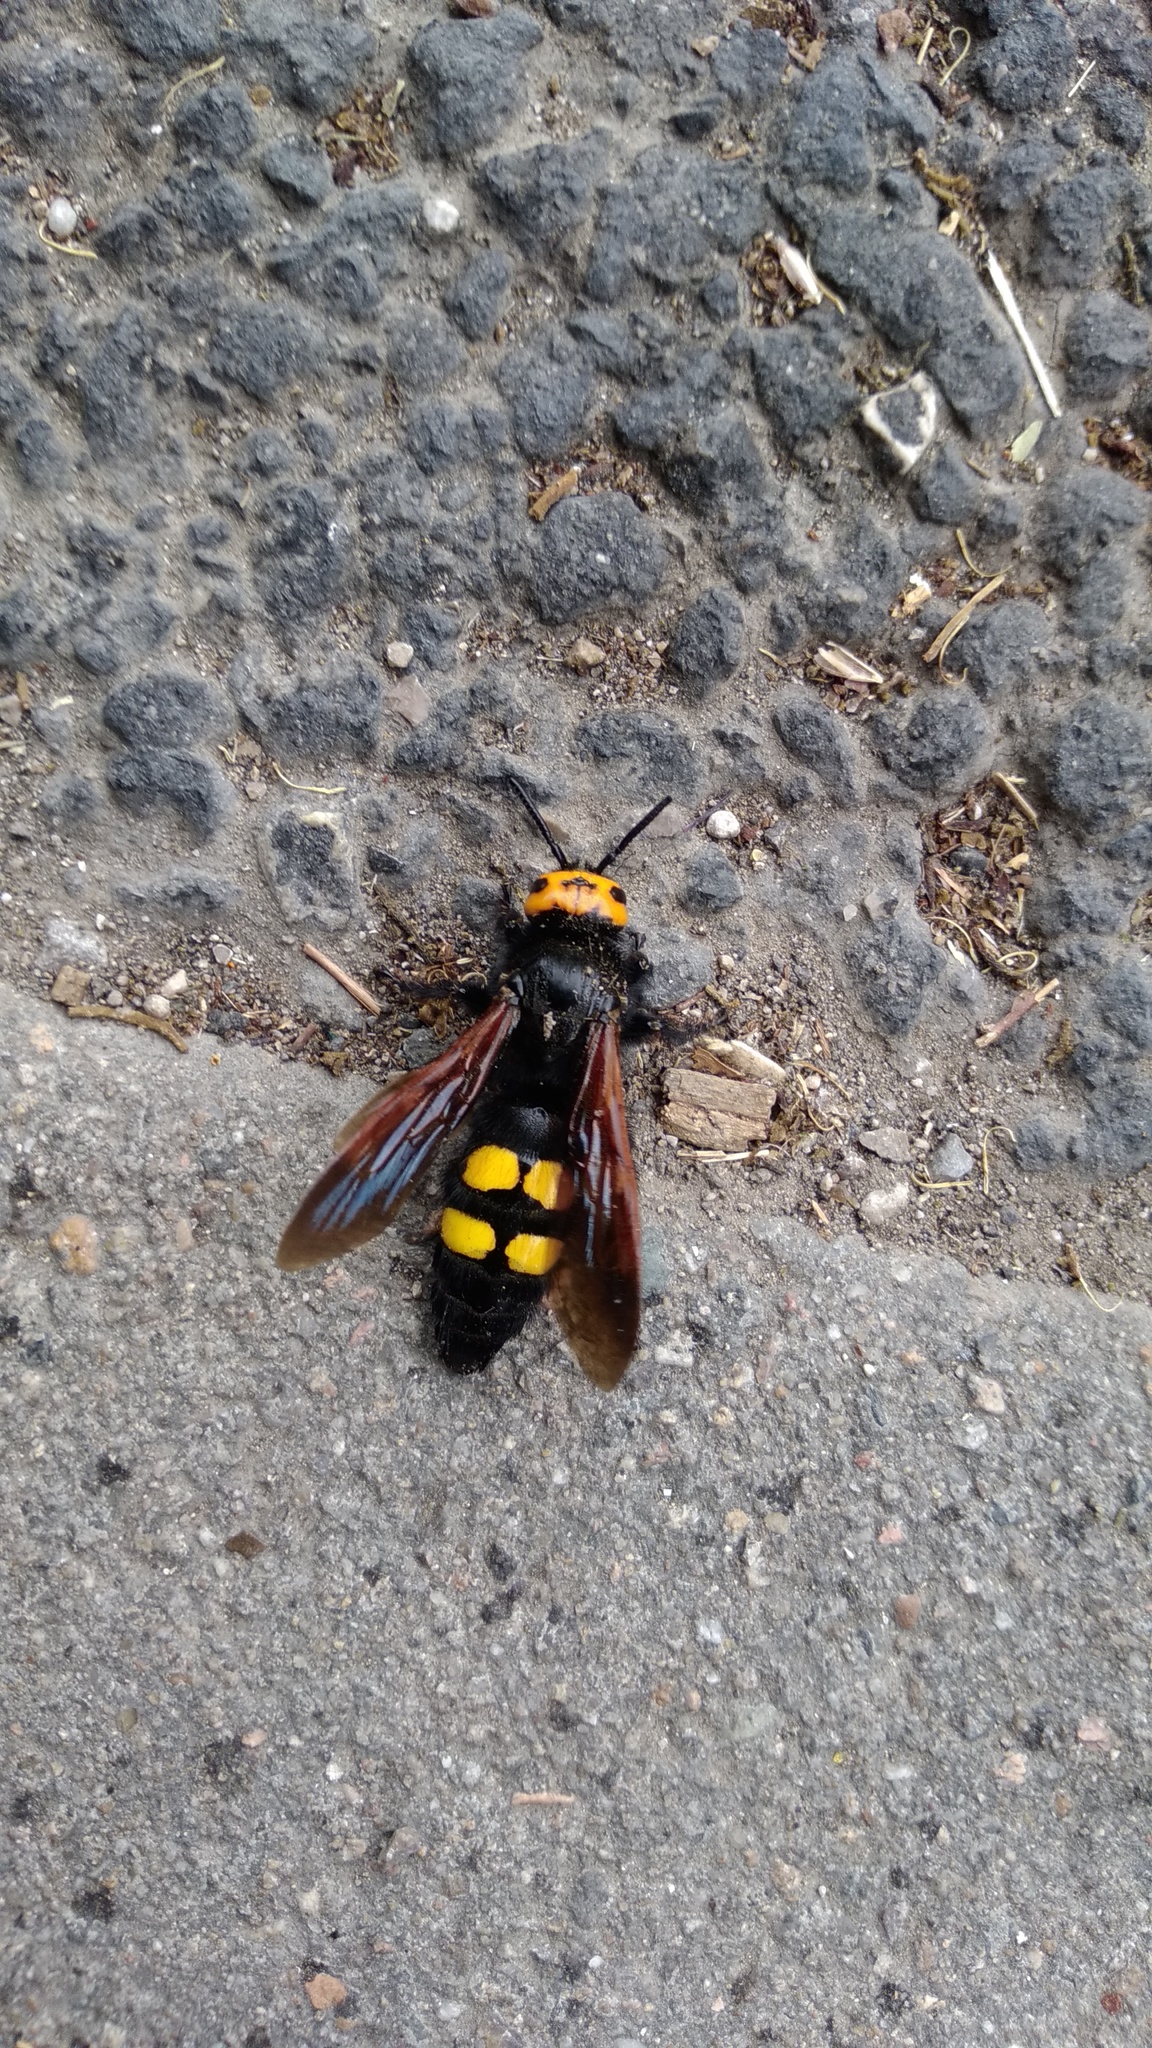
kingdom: Animalia
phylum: Arthropoda
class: Insecta
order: Hymenoptera
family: Scoliidae
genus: Megascolia
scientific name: Megascolia maculata
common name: Mammoth wasp
